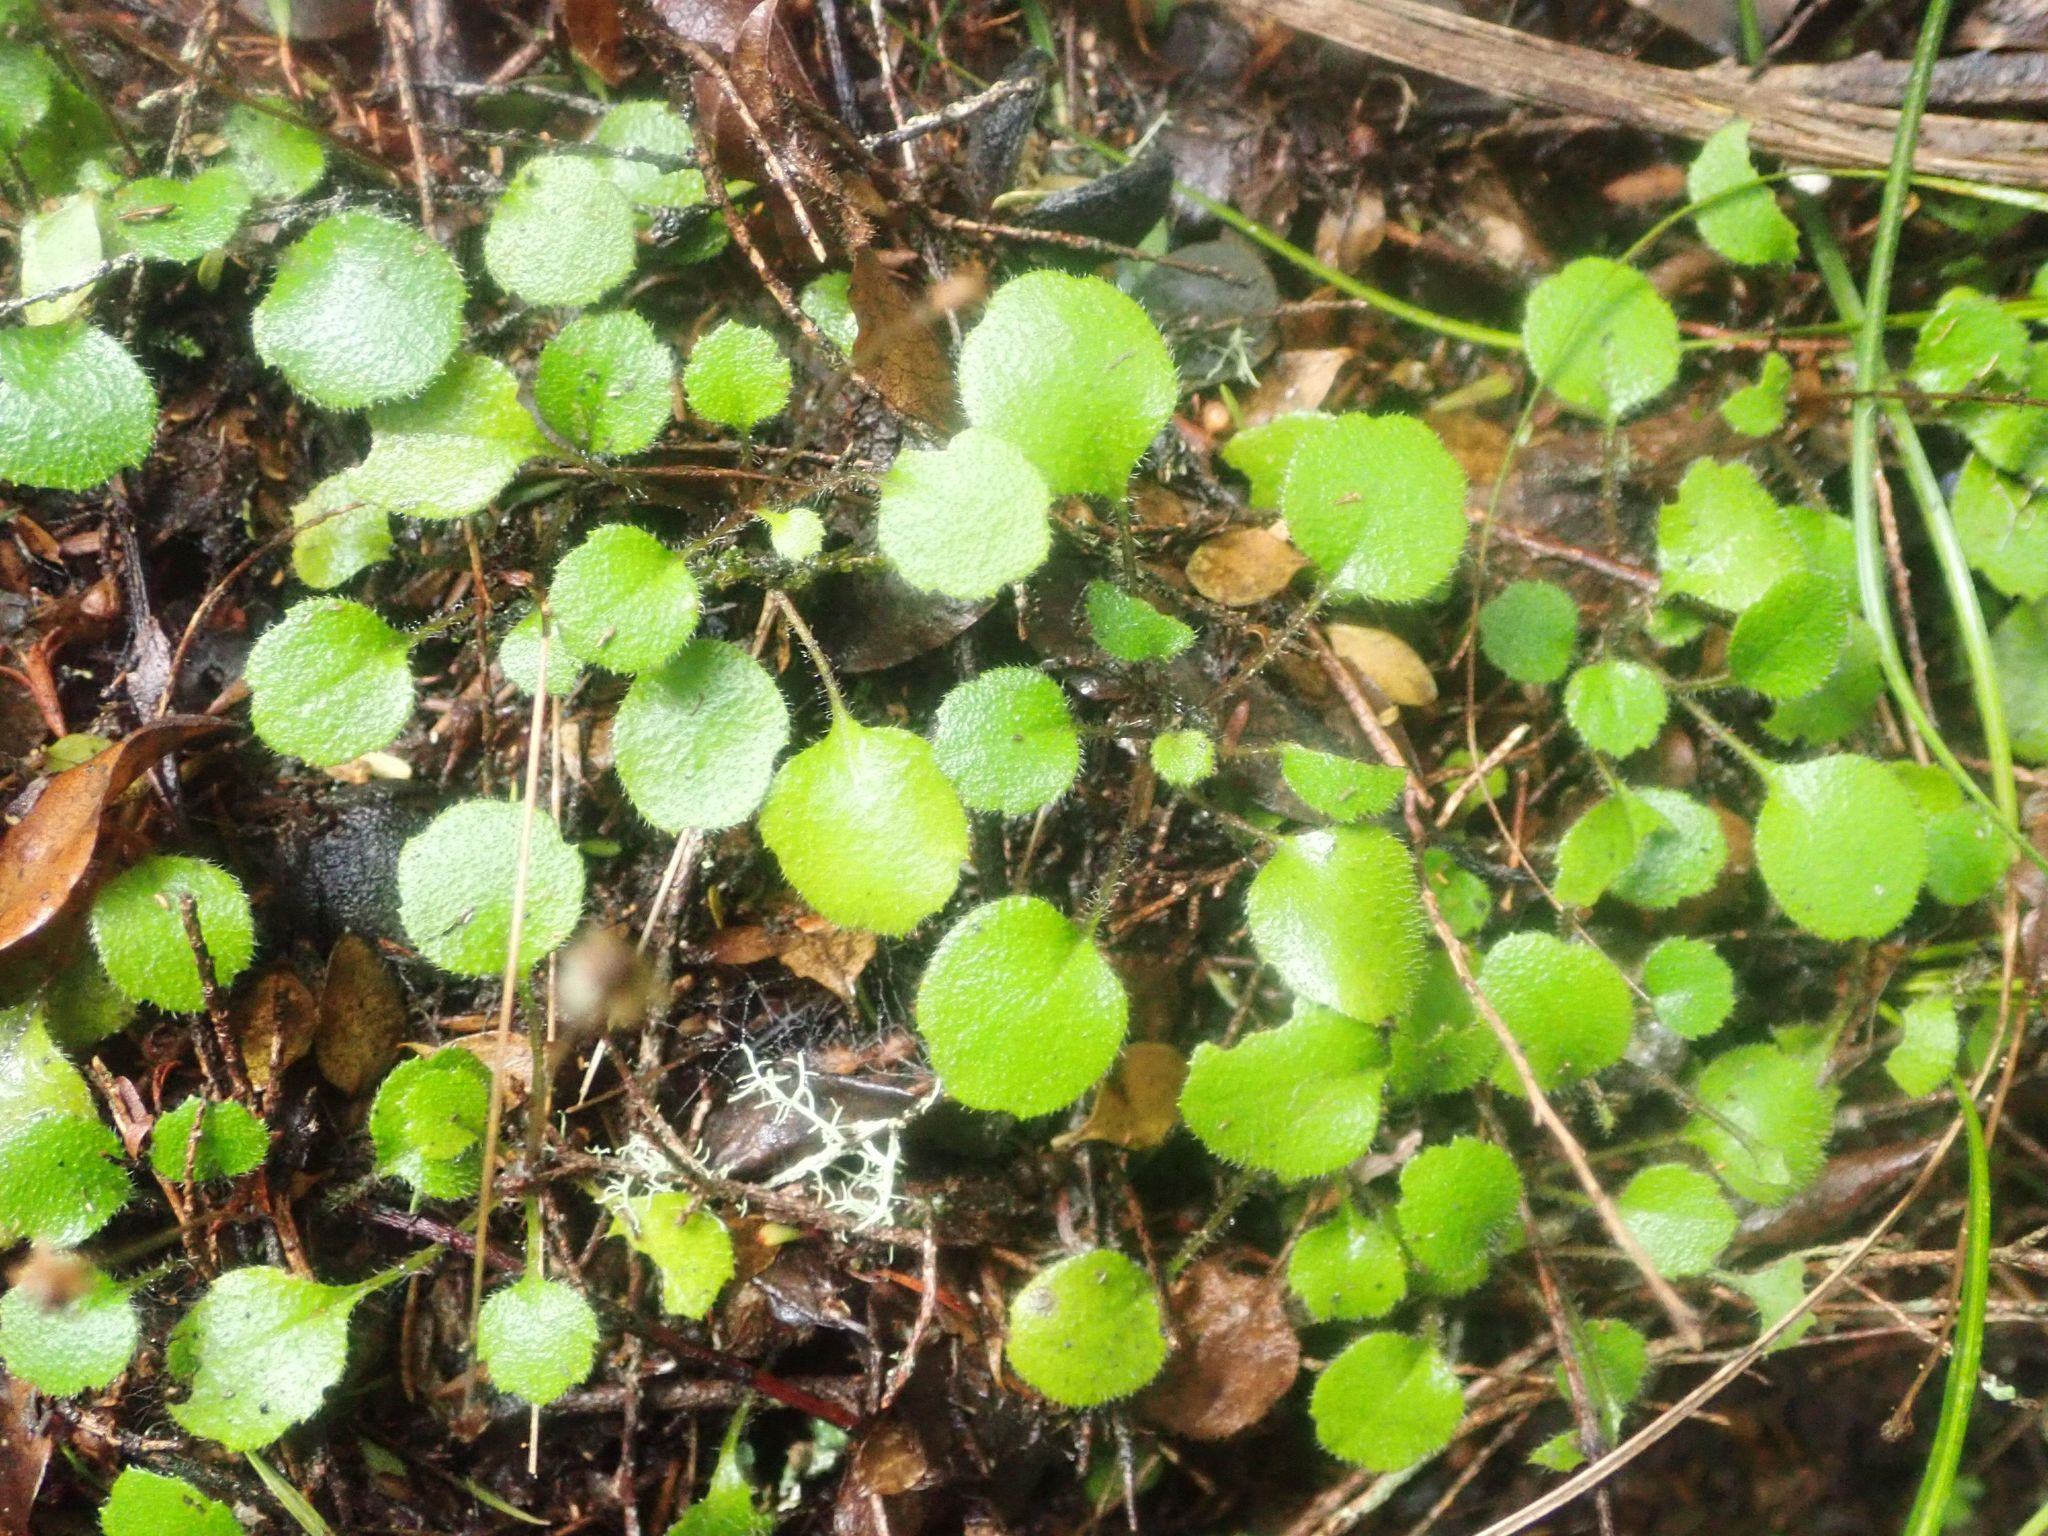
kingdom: Plantae
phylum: Tracheophyta
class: Magnoliopsida
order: Asterales
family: Asteraceae
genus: Lagenophora
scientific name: Lagenophora strangulata
